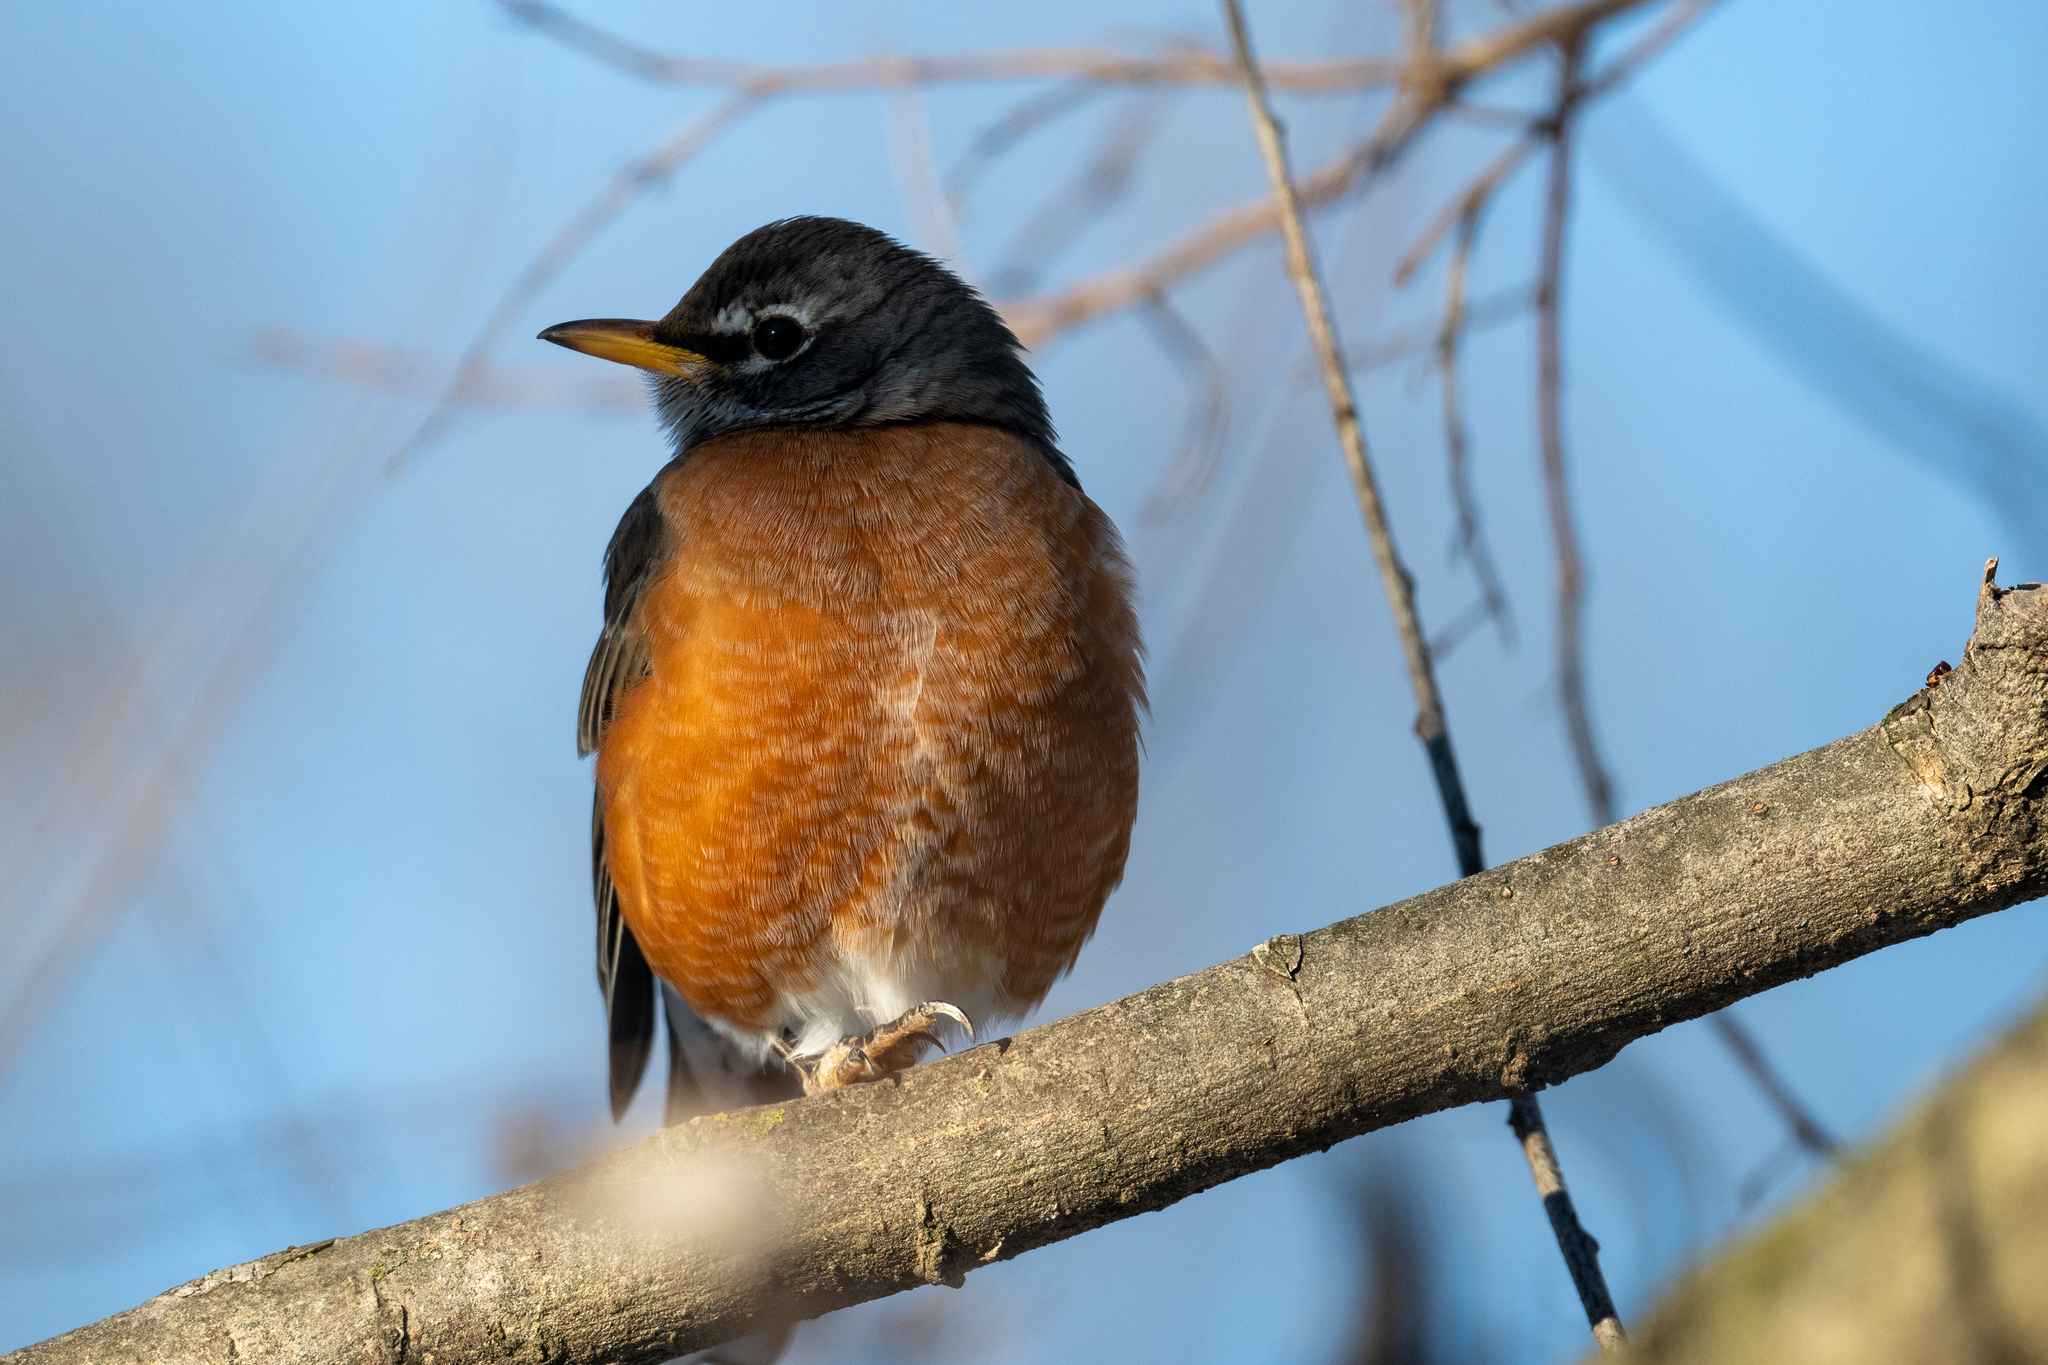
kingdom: Animalia
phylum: Chordata
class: Aves
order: Passeriformes
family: Turdidae
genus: Turdus
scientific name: Turdus migratorius
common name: American robin
